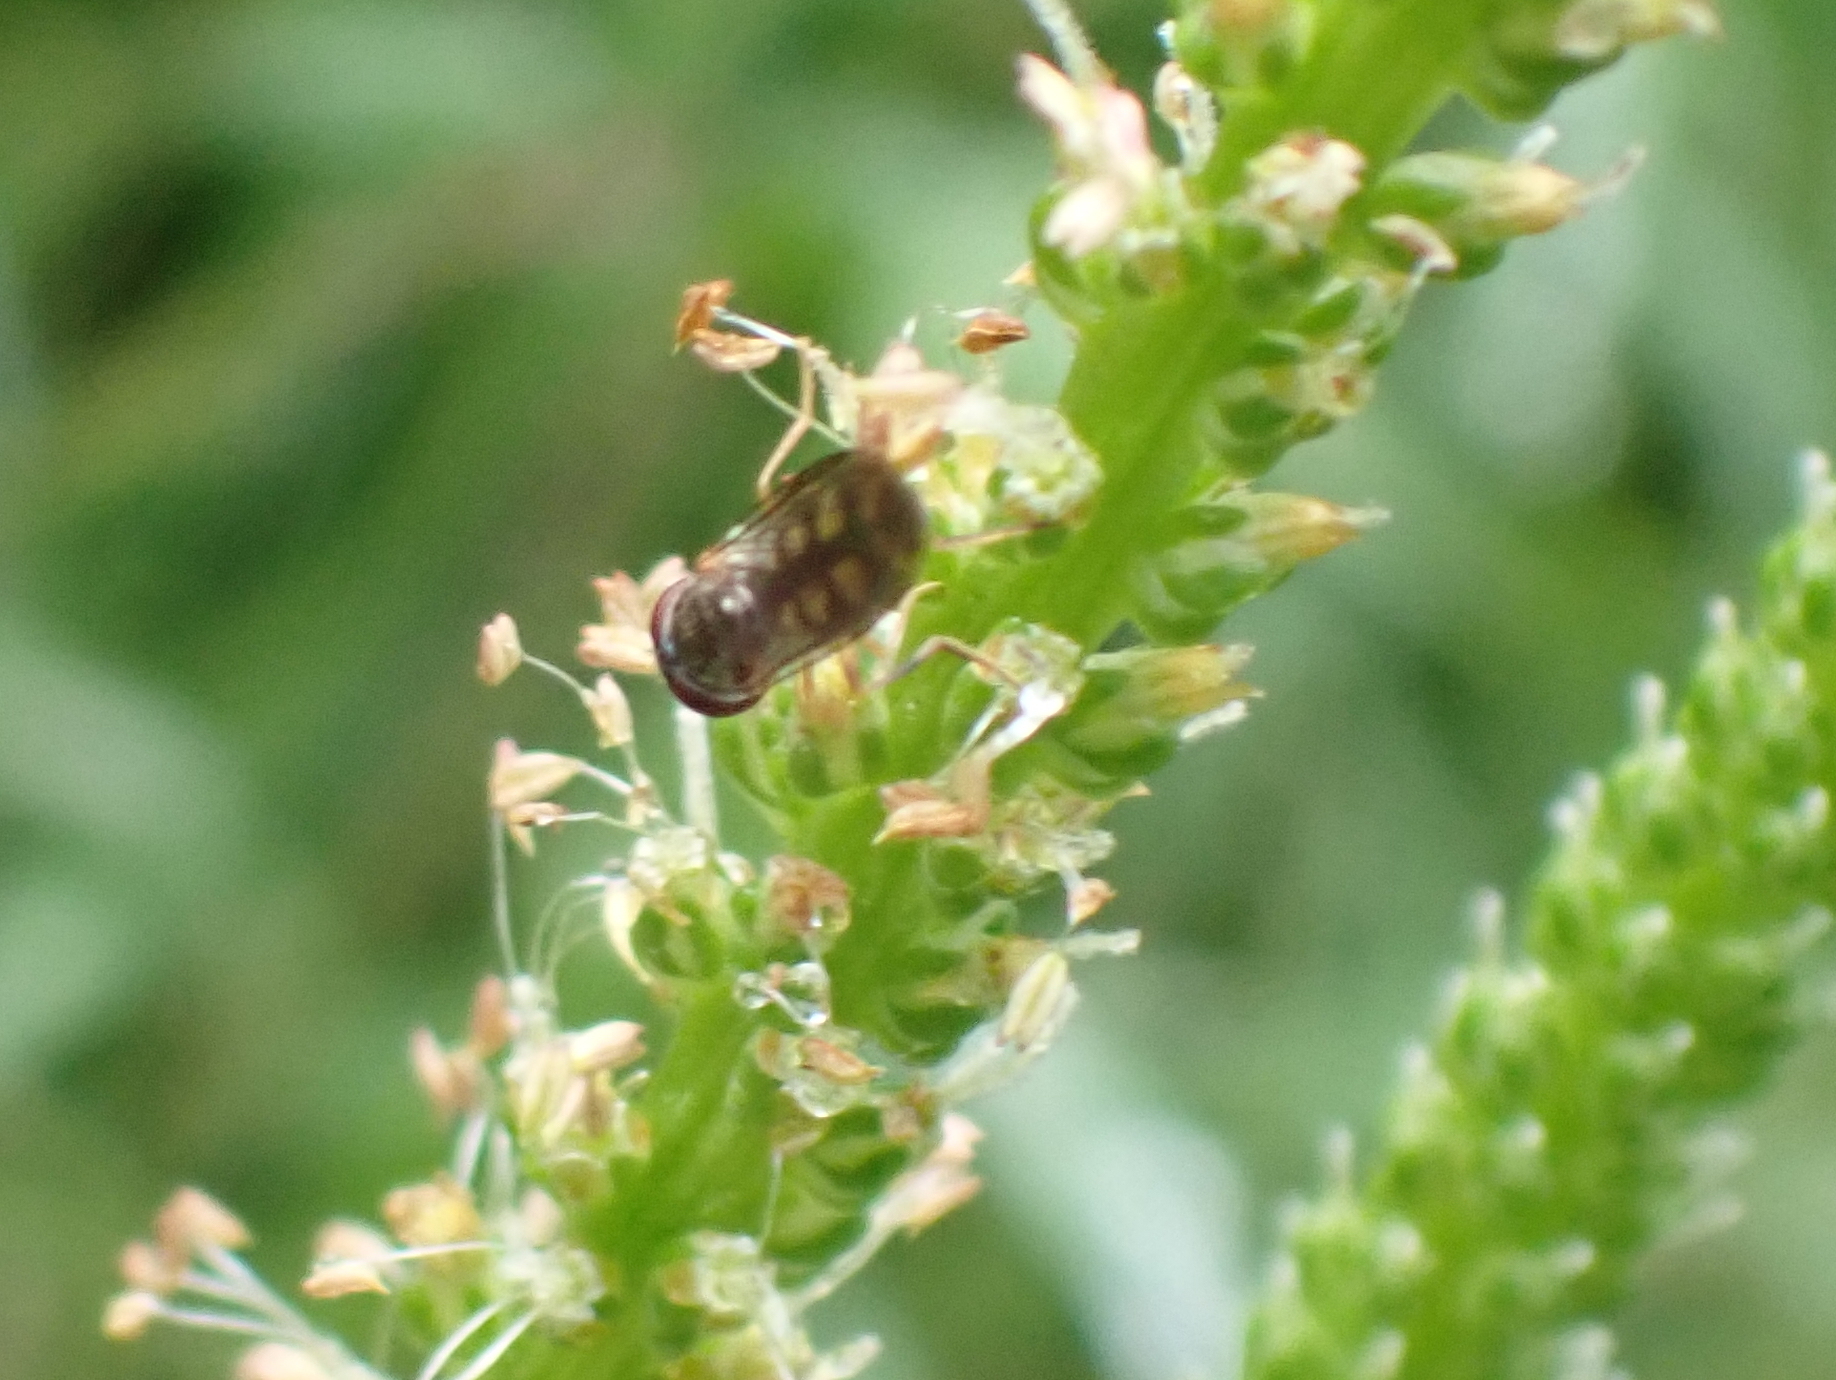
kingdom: Animalia
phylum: Arthropoda
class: Insecta
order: Diptera
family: Syrphidae
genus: Melanostoma
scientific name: Melanostoma mellina
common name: Hover fly
